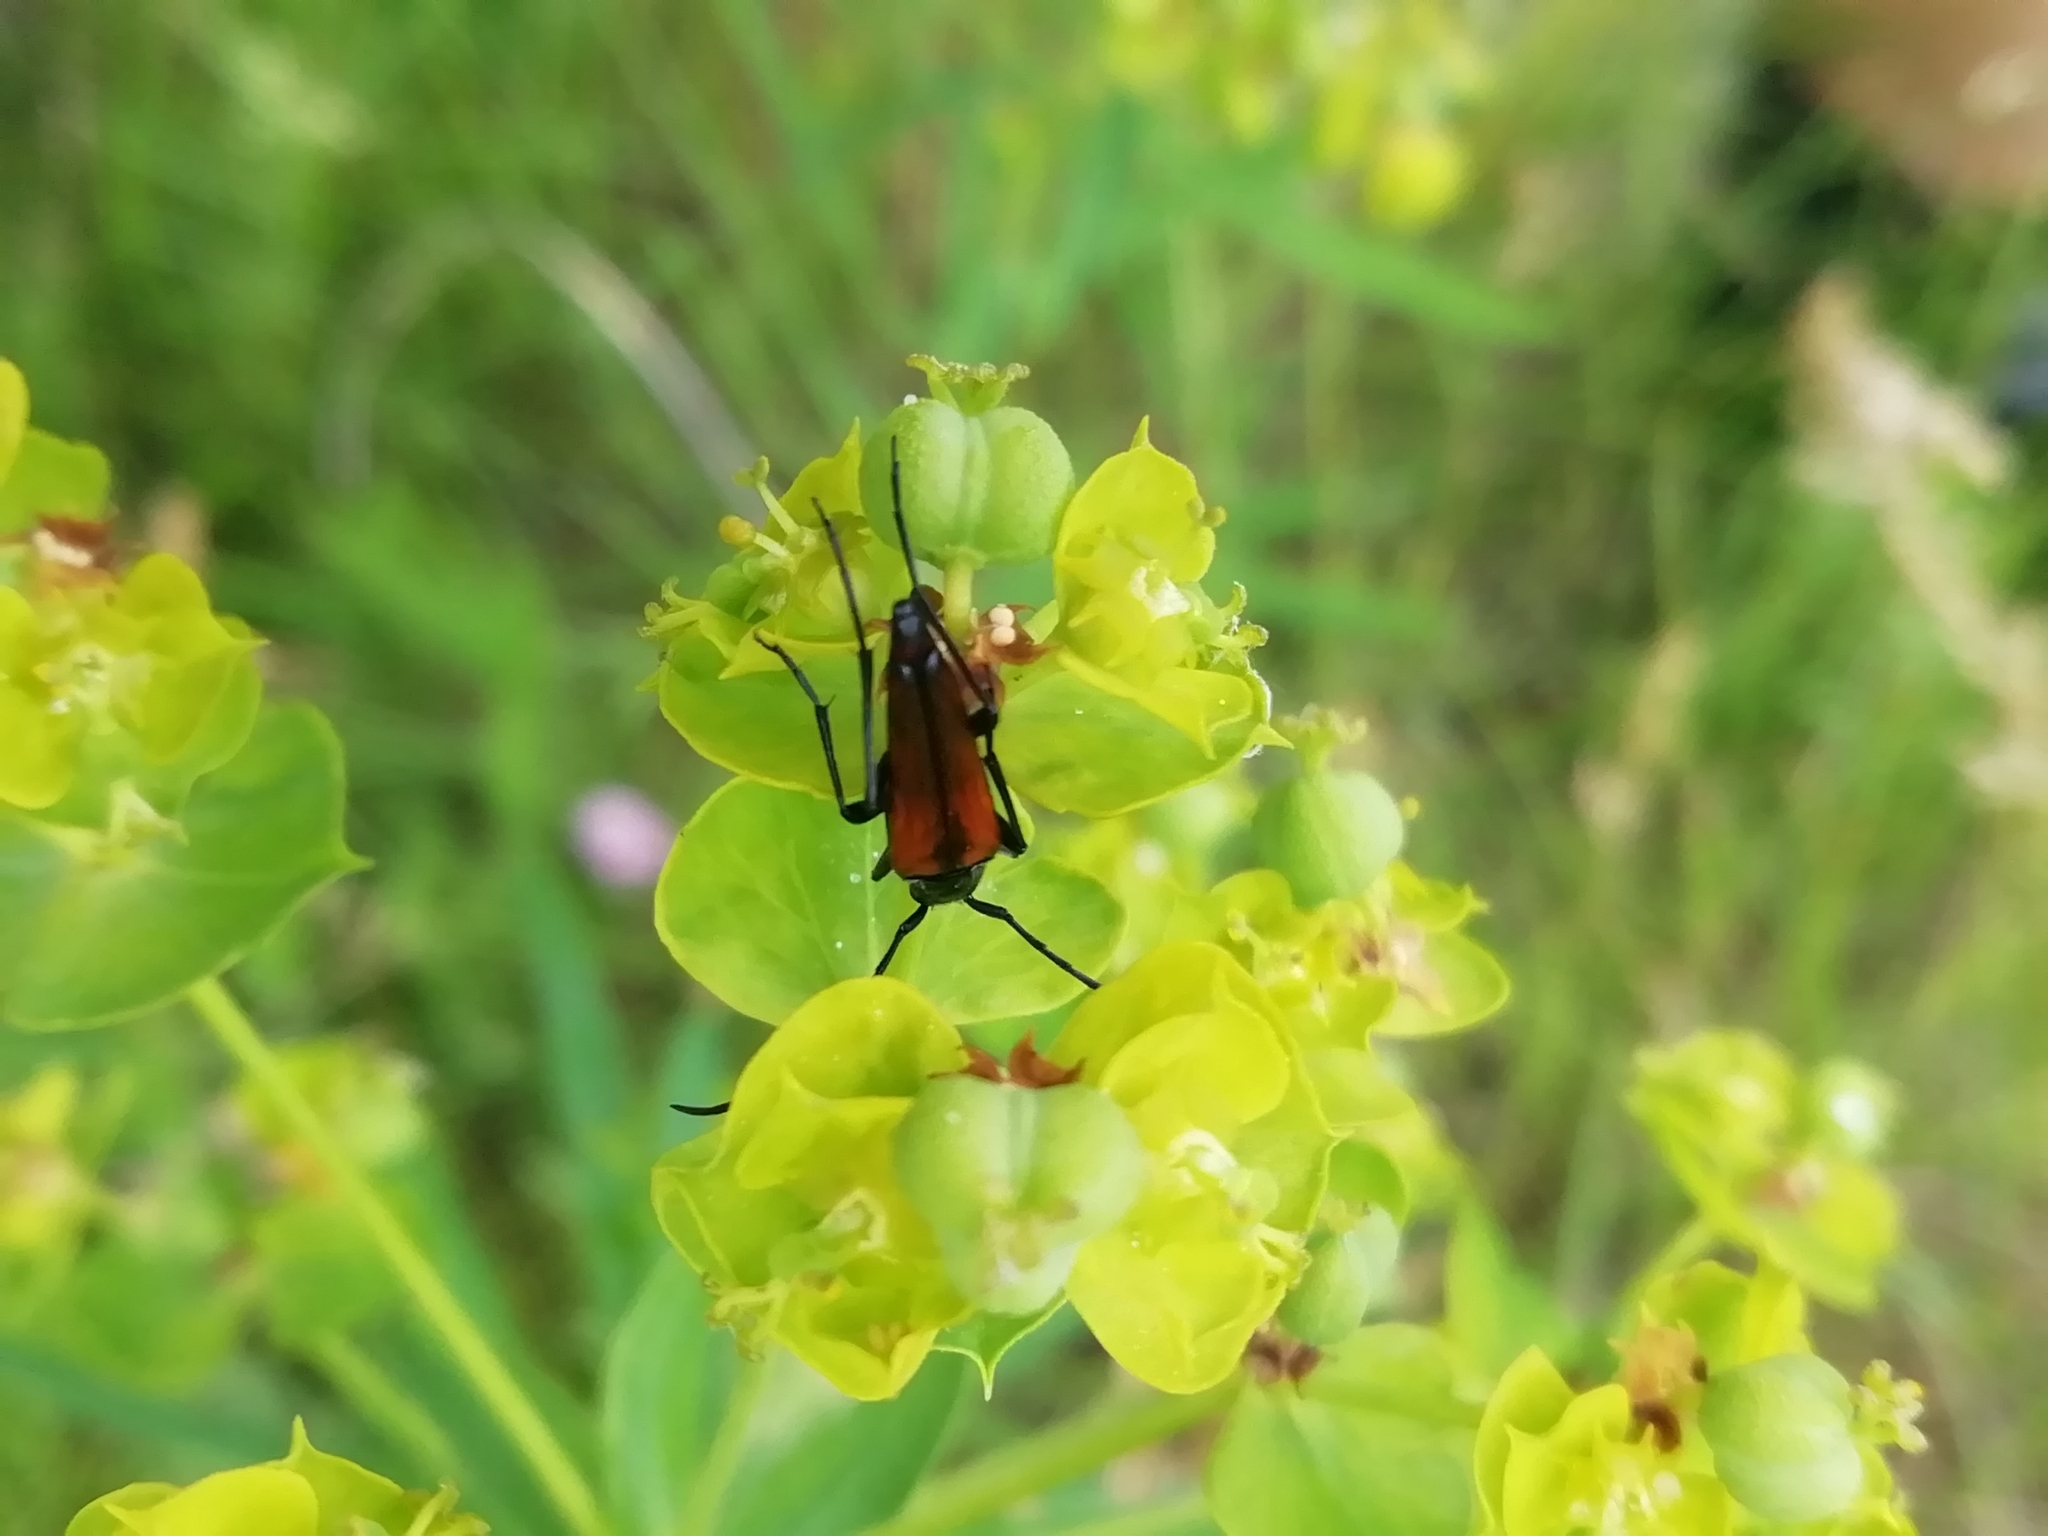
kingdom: Animalia
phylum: Arthropoda
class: Insecta
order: Coleoptera
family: Cerambycidae
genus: Stenurella
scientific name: Stenurella melanura
